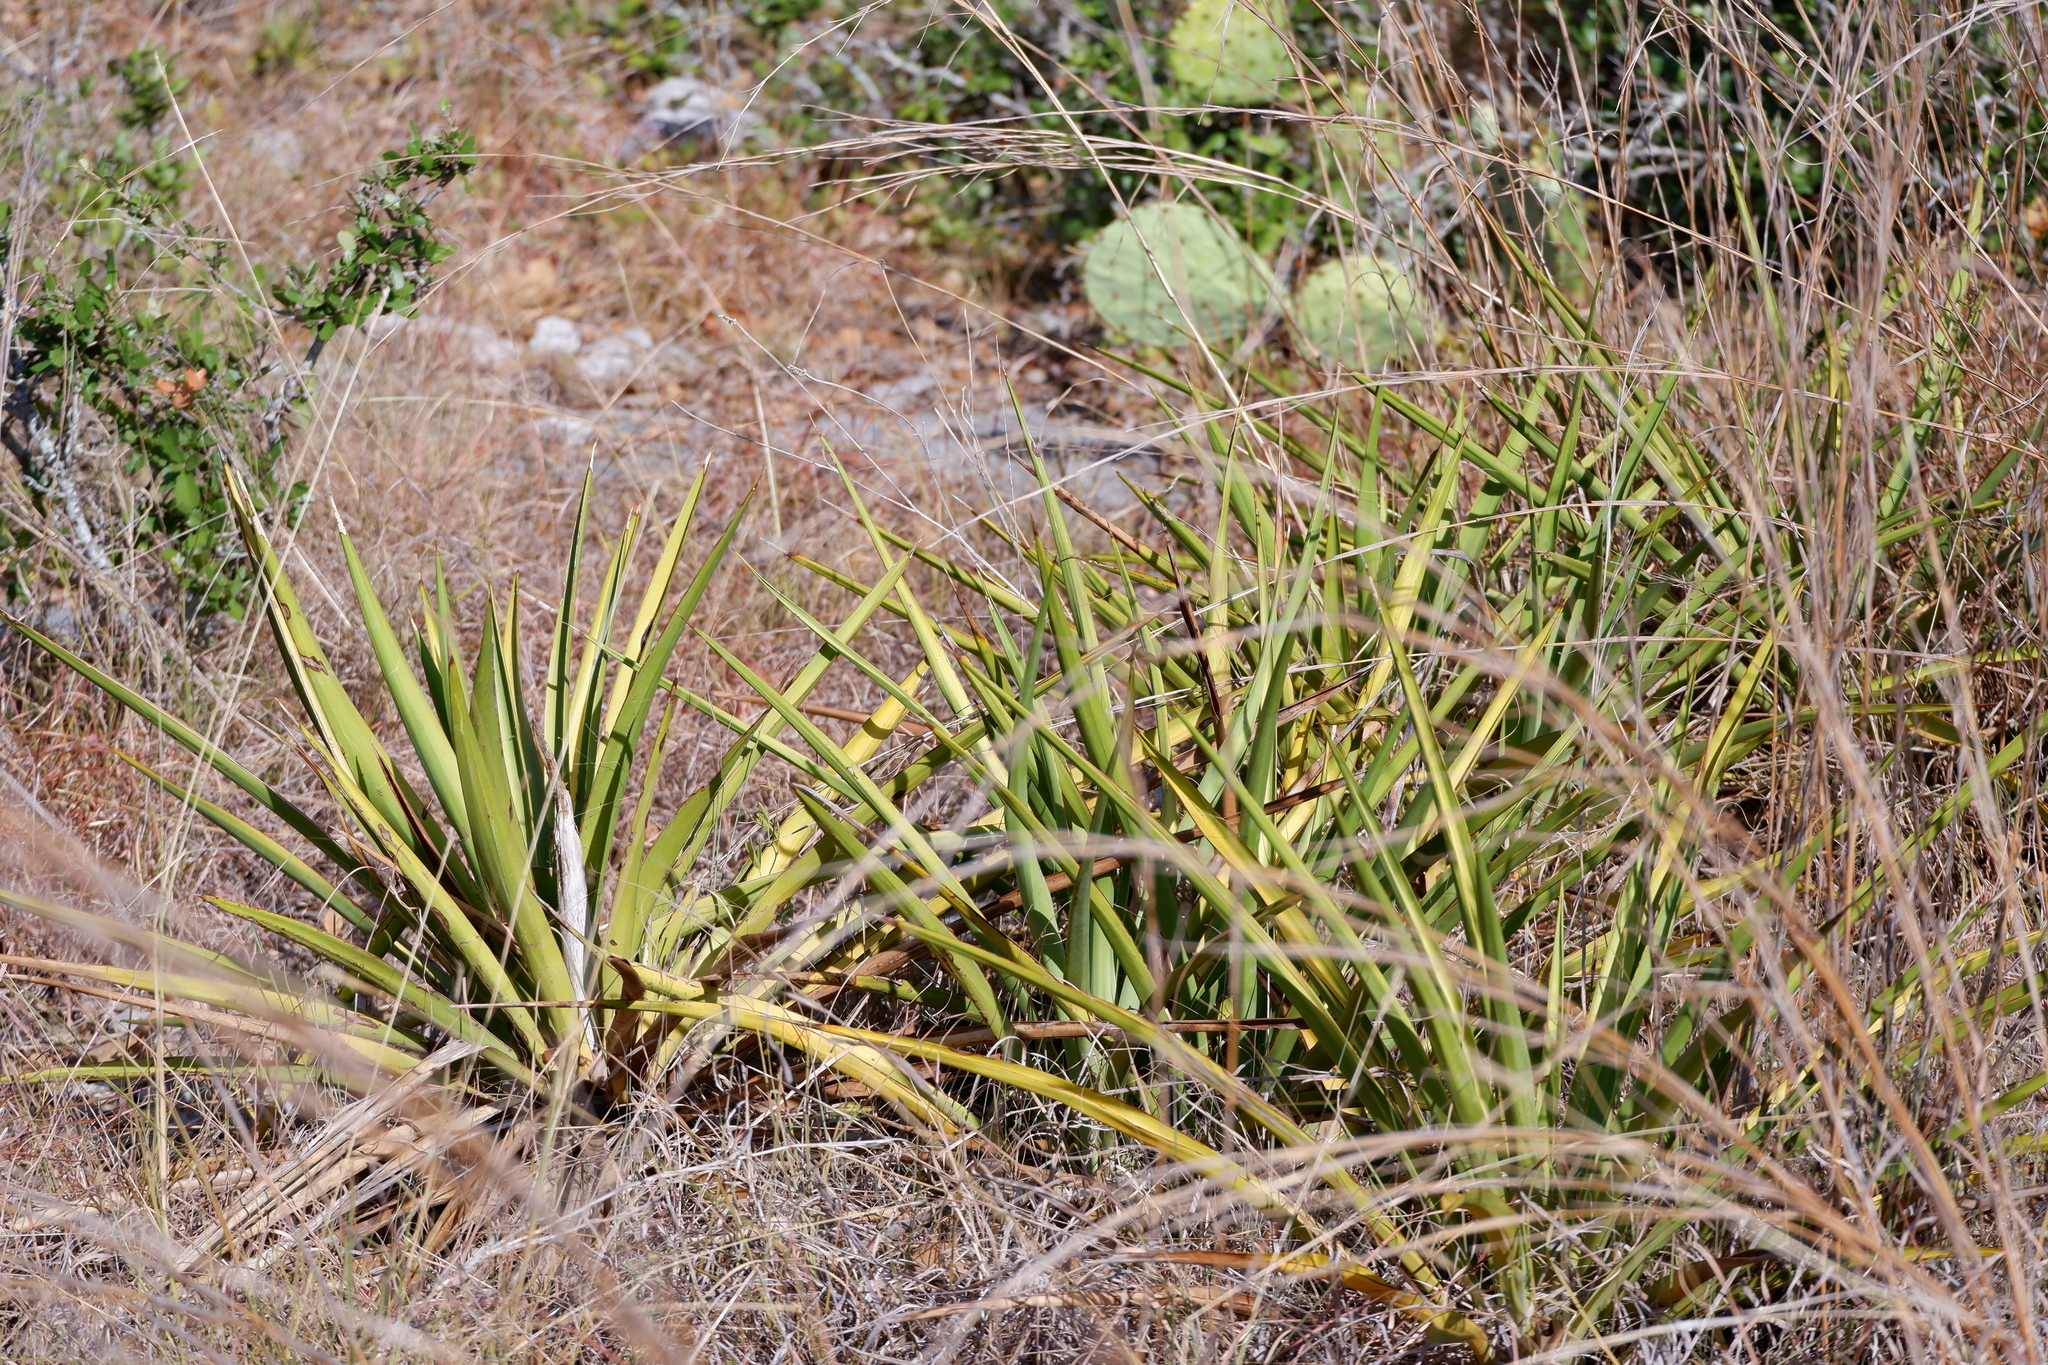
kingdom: Plantae
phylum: Tracheophyta
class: Liliopsida
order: Asparagales
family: Asparagaceae
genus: Yucca
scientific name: Yucca rupicola
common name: Twisted-leaf spanish-dagger
